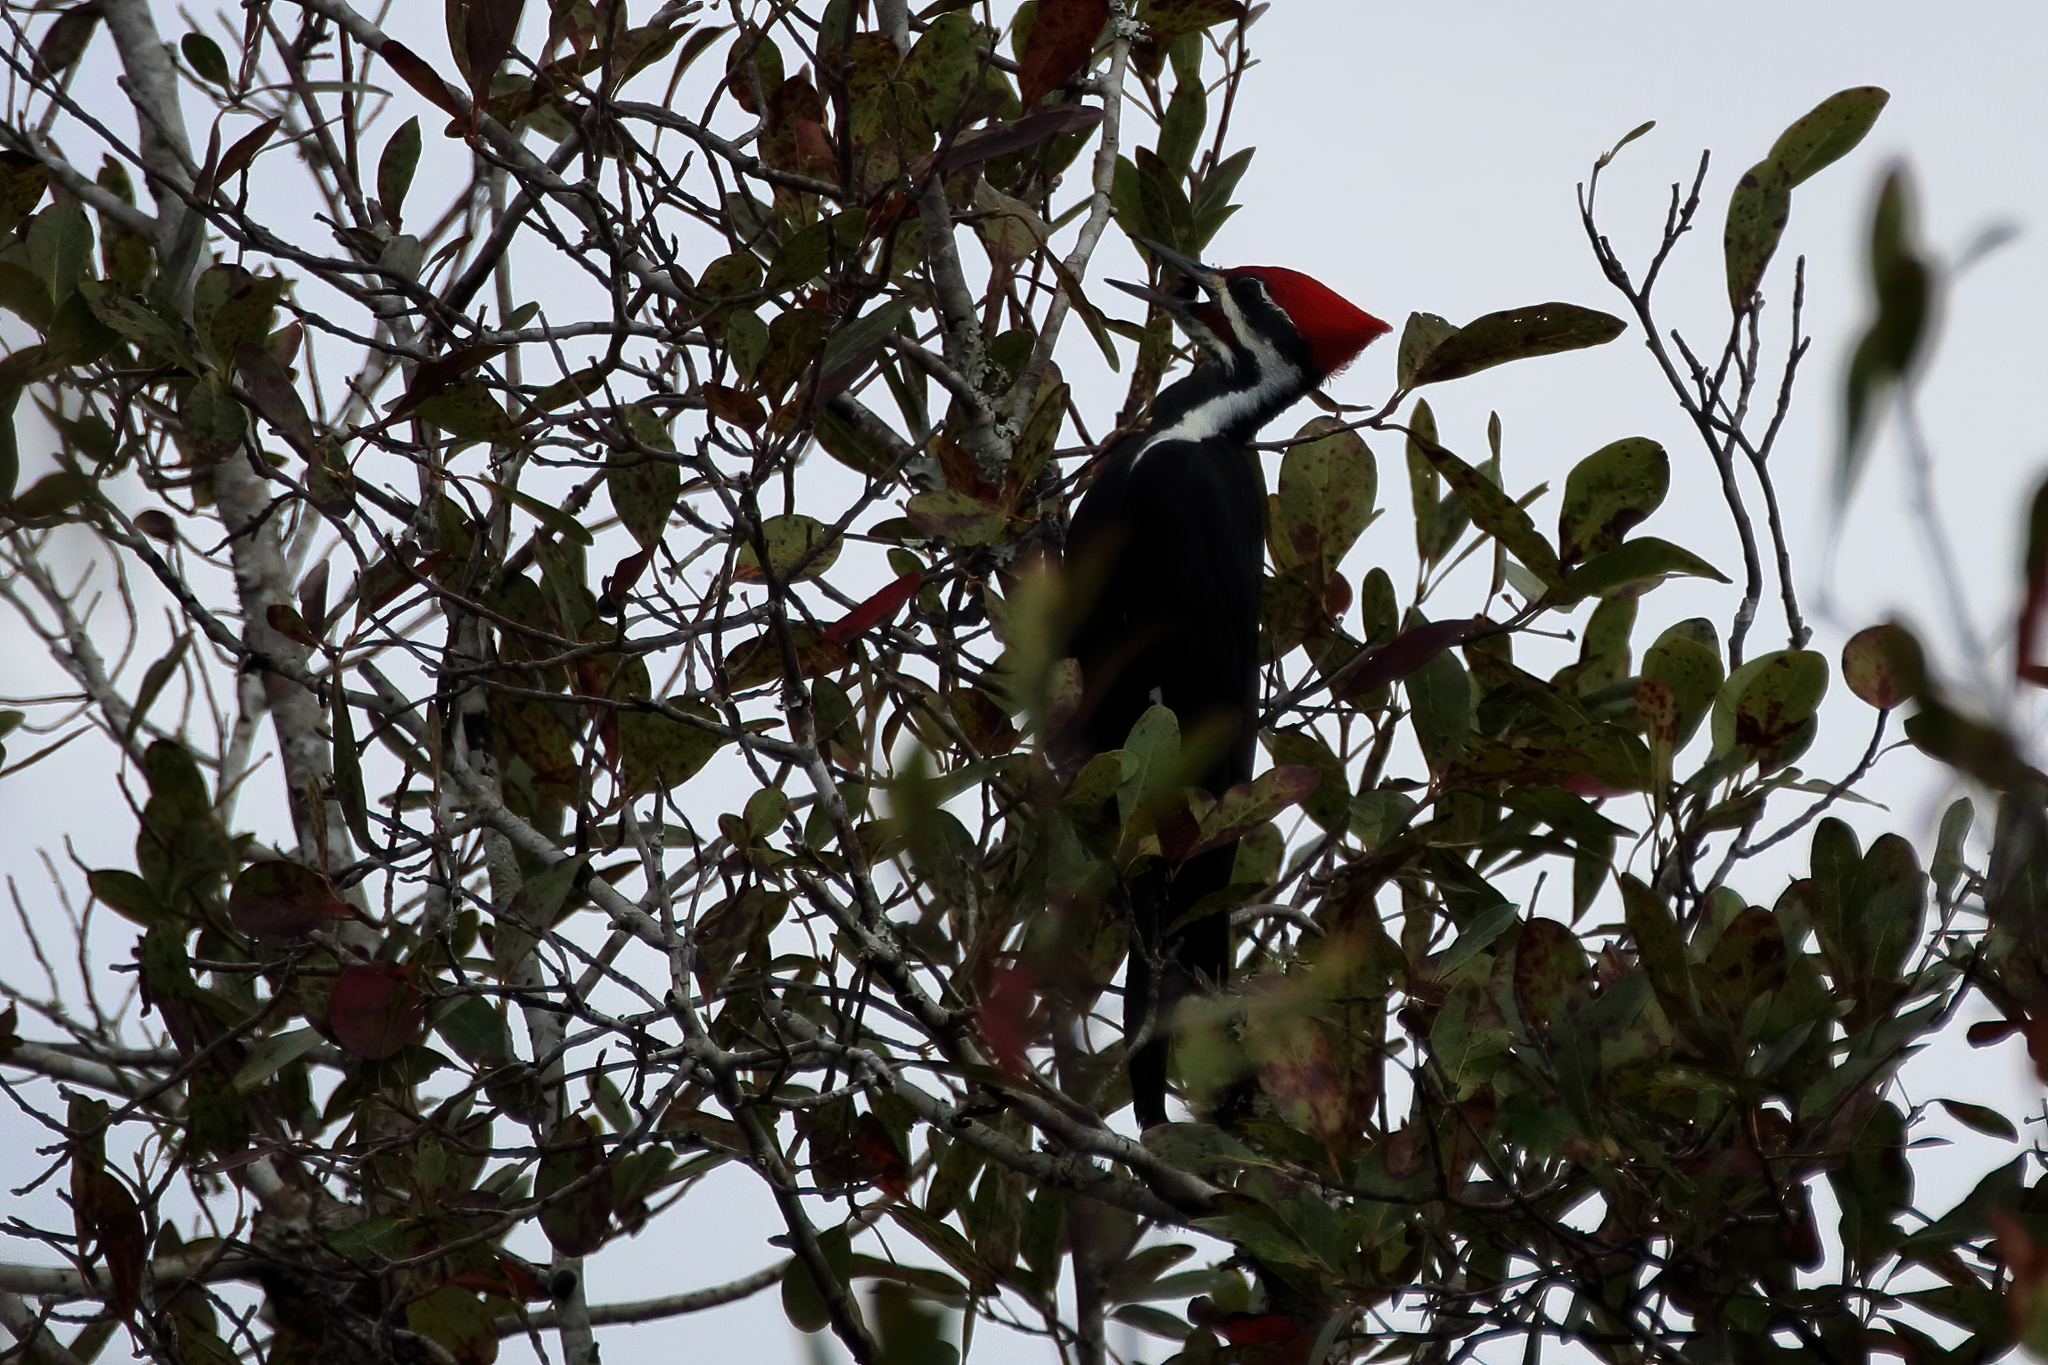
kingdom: Animalia
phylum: Chordata
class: Aves
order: Piciformes
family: Picidae
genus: Dryocopus
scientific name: Dryocopus pileatus
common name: Pileated woodpecker
